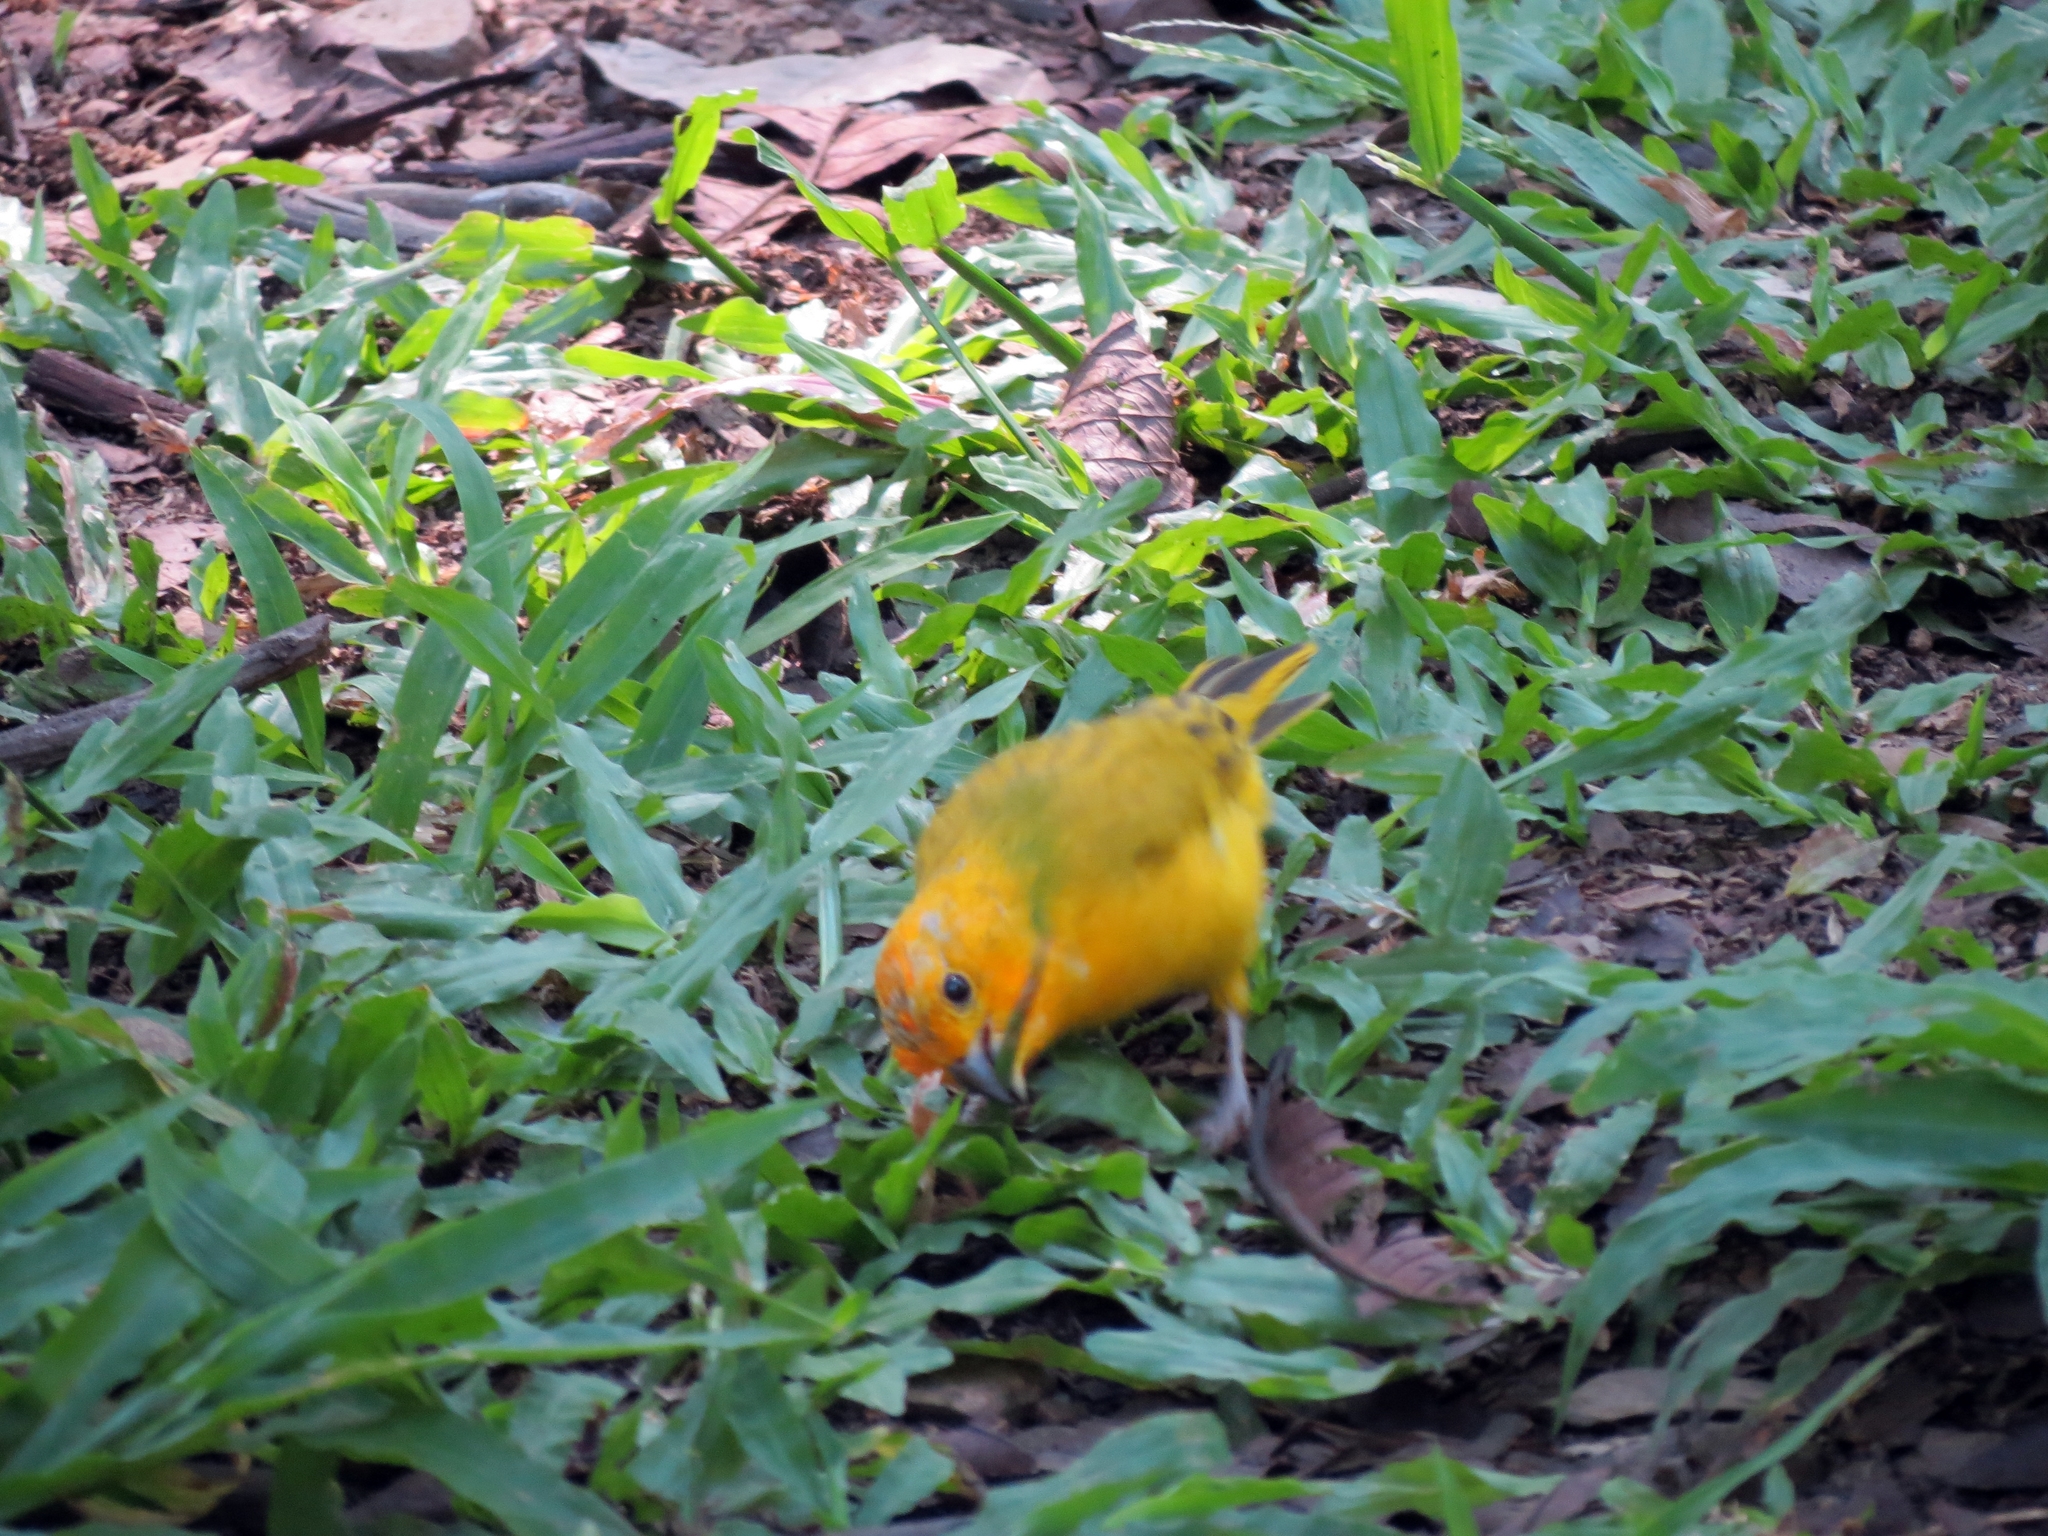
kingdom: Animalia
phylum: Chordata
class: Aves
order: Passeriformes
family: Thraupidae
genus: Sicalis
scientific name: Sicalis flaveola
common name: Saffron finch
